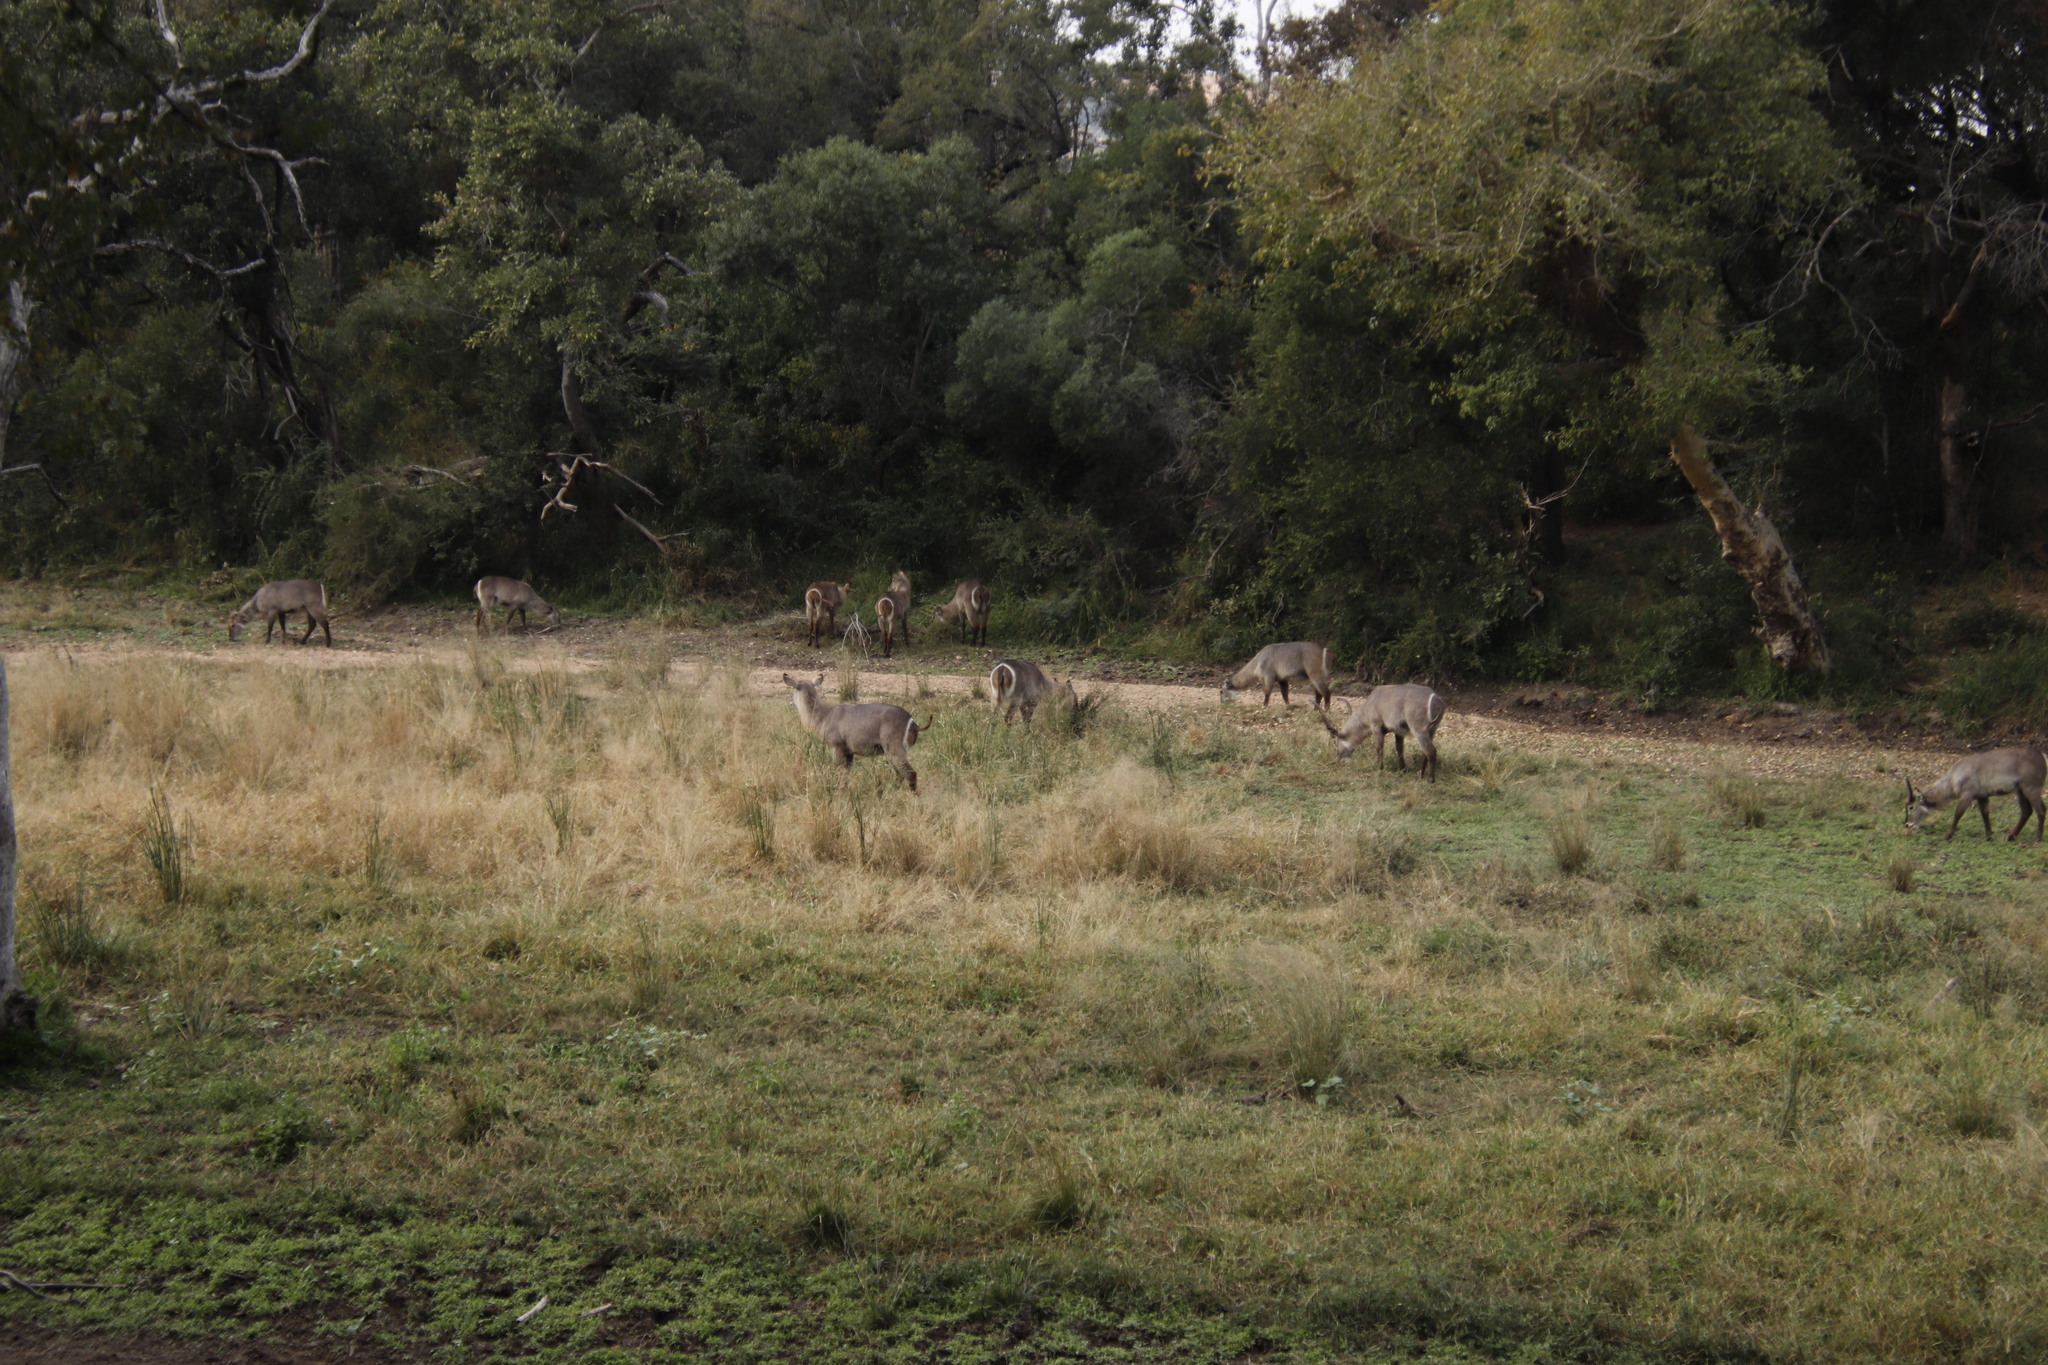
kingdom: Animalia
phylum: Chordata
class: Mammalia
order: Artiodactyla
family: Bovidae
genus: Kobus
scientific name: Kobus ellipsiprymnus
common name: Waterbuck
